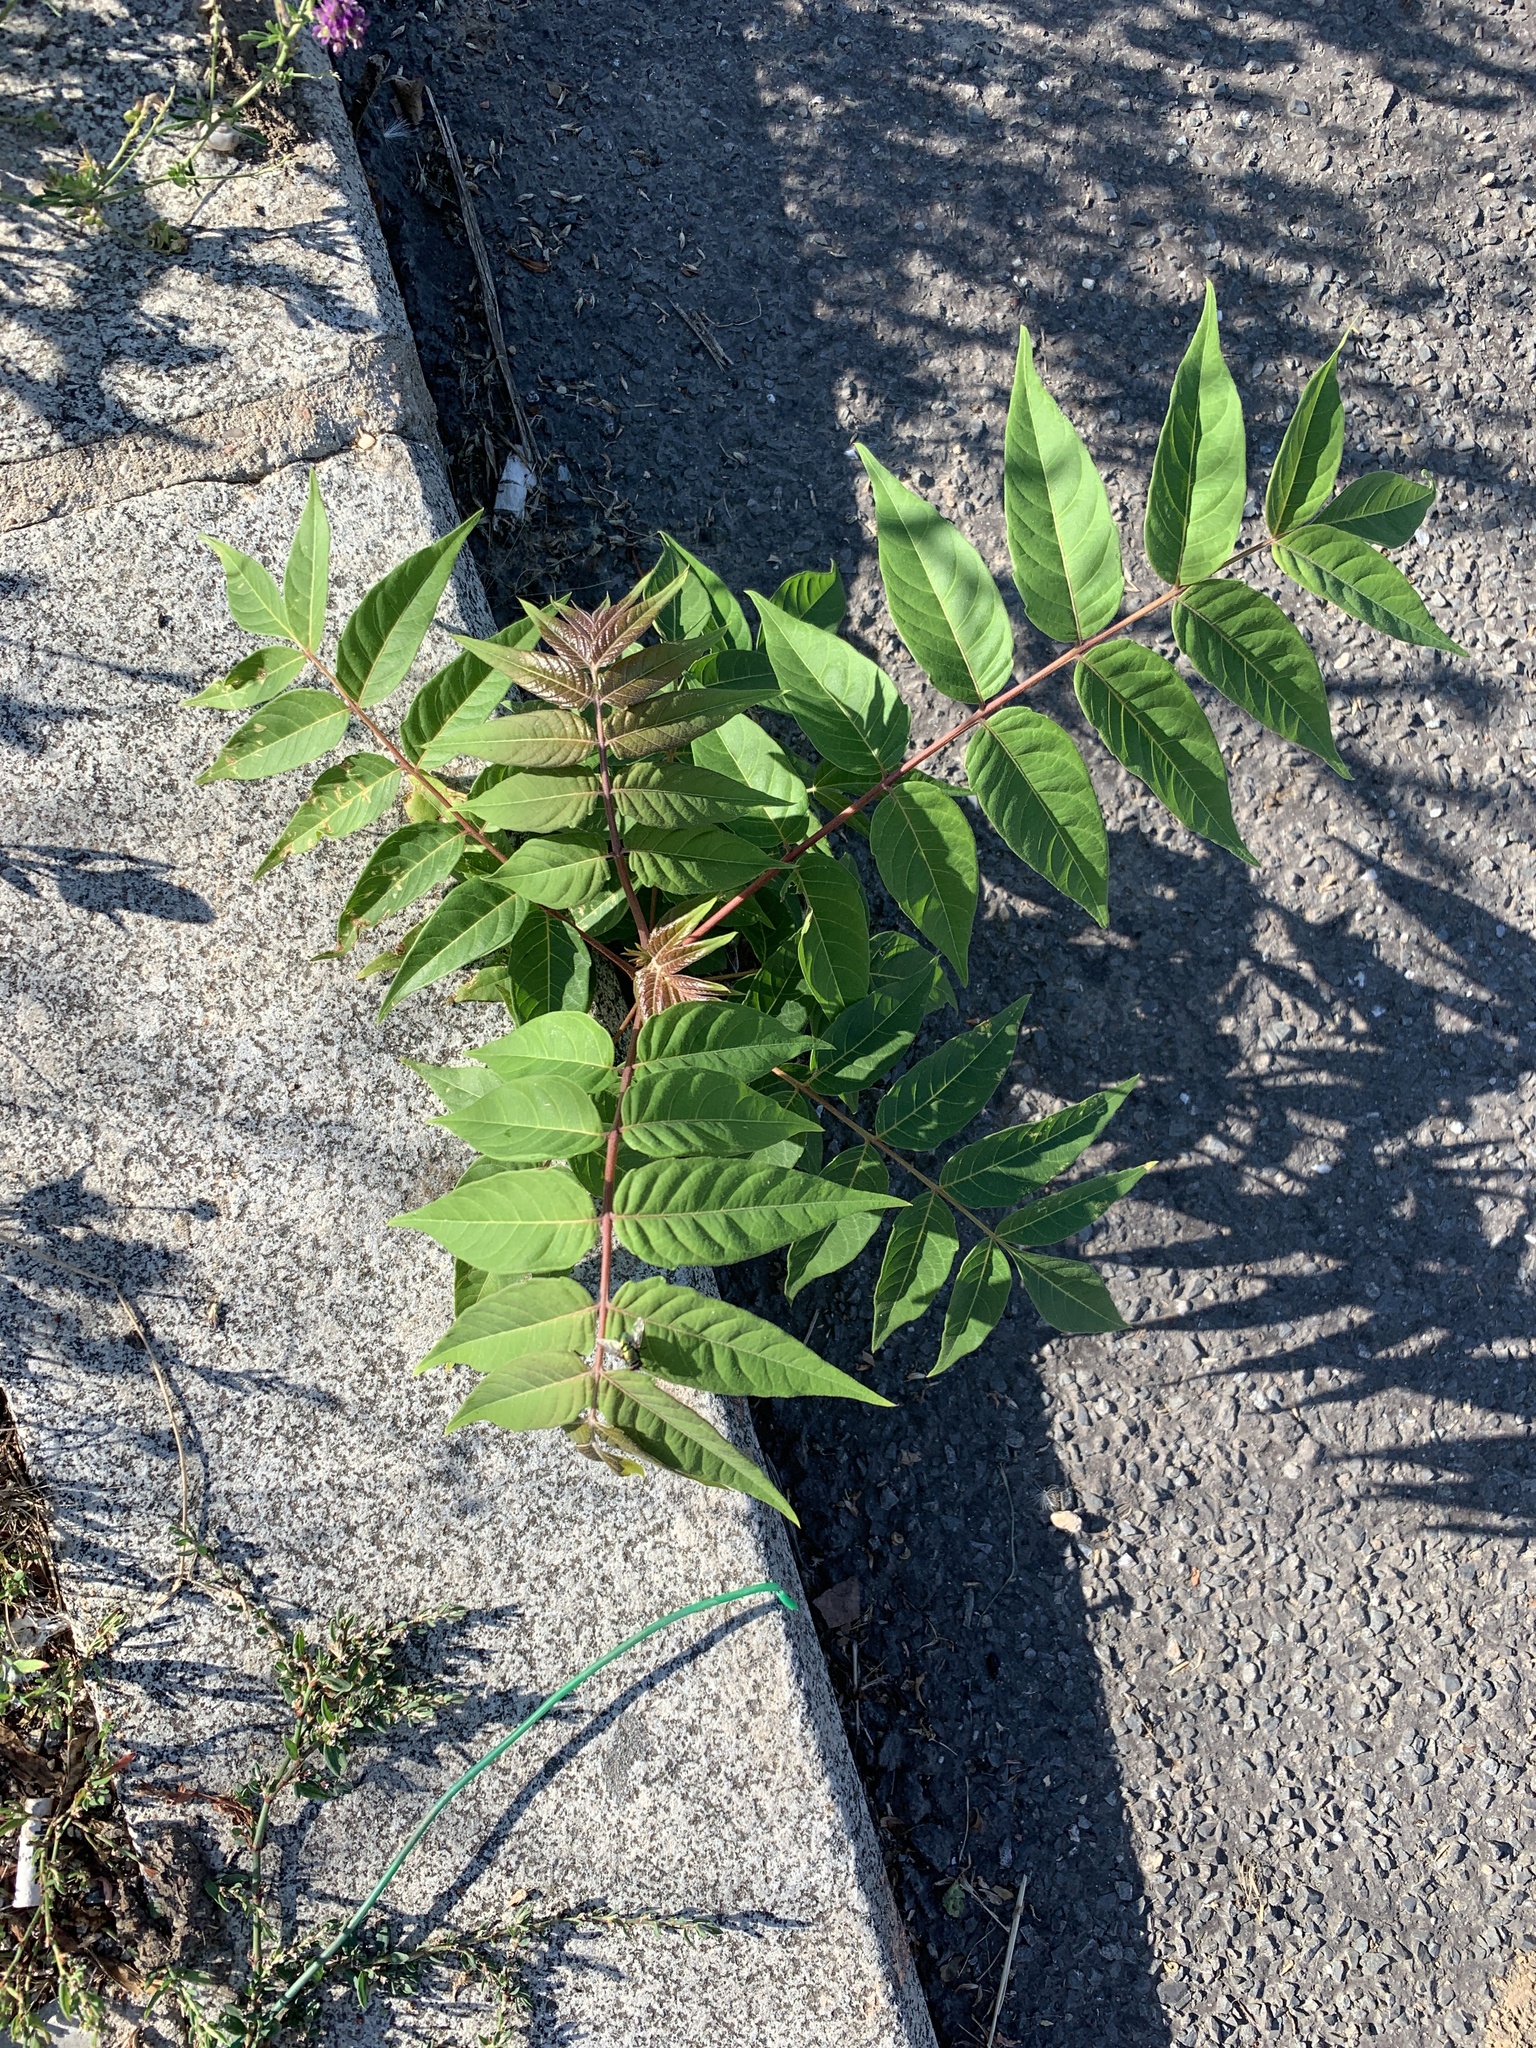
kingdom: Plantae
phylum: Tracheophyta
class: Magnoliopsida
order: Sapindales
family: Simaroubaceae
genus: Ailanthus
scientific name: Ailanthus altissima
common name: Tree-of-heaven
